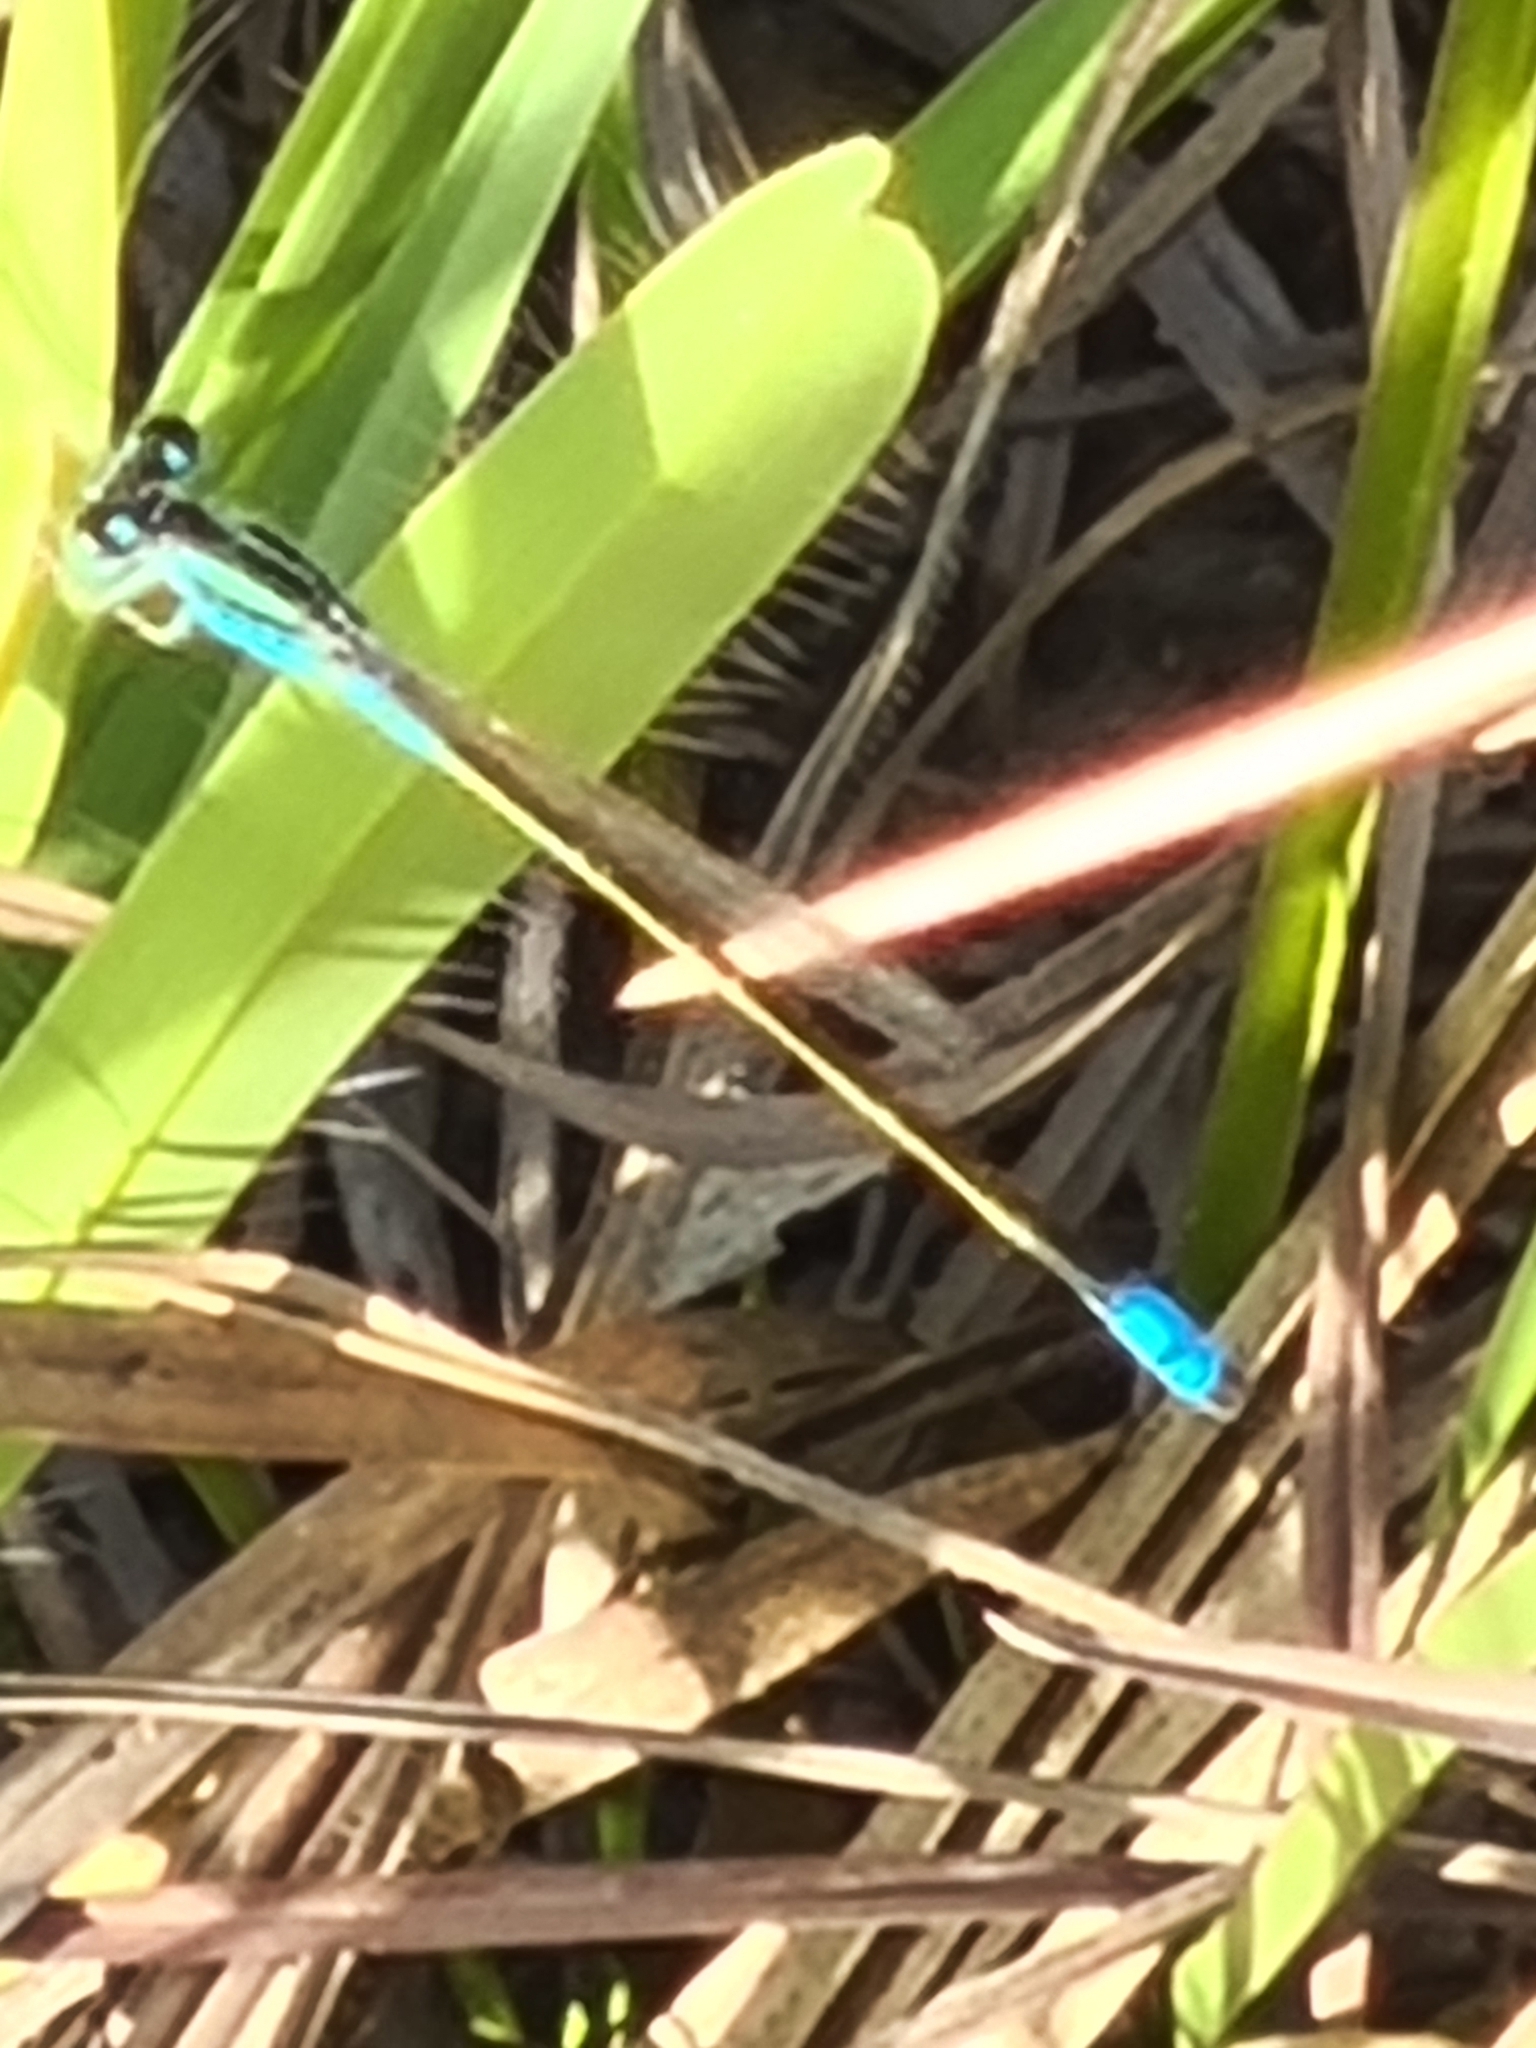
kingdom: Animalia
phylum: Arthropoda
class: Insecta
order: Odonata
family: Coenagrionidae
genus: Ischnura
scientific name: Ischnura fluviatilis
